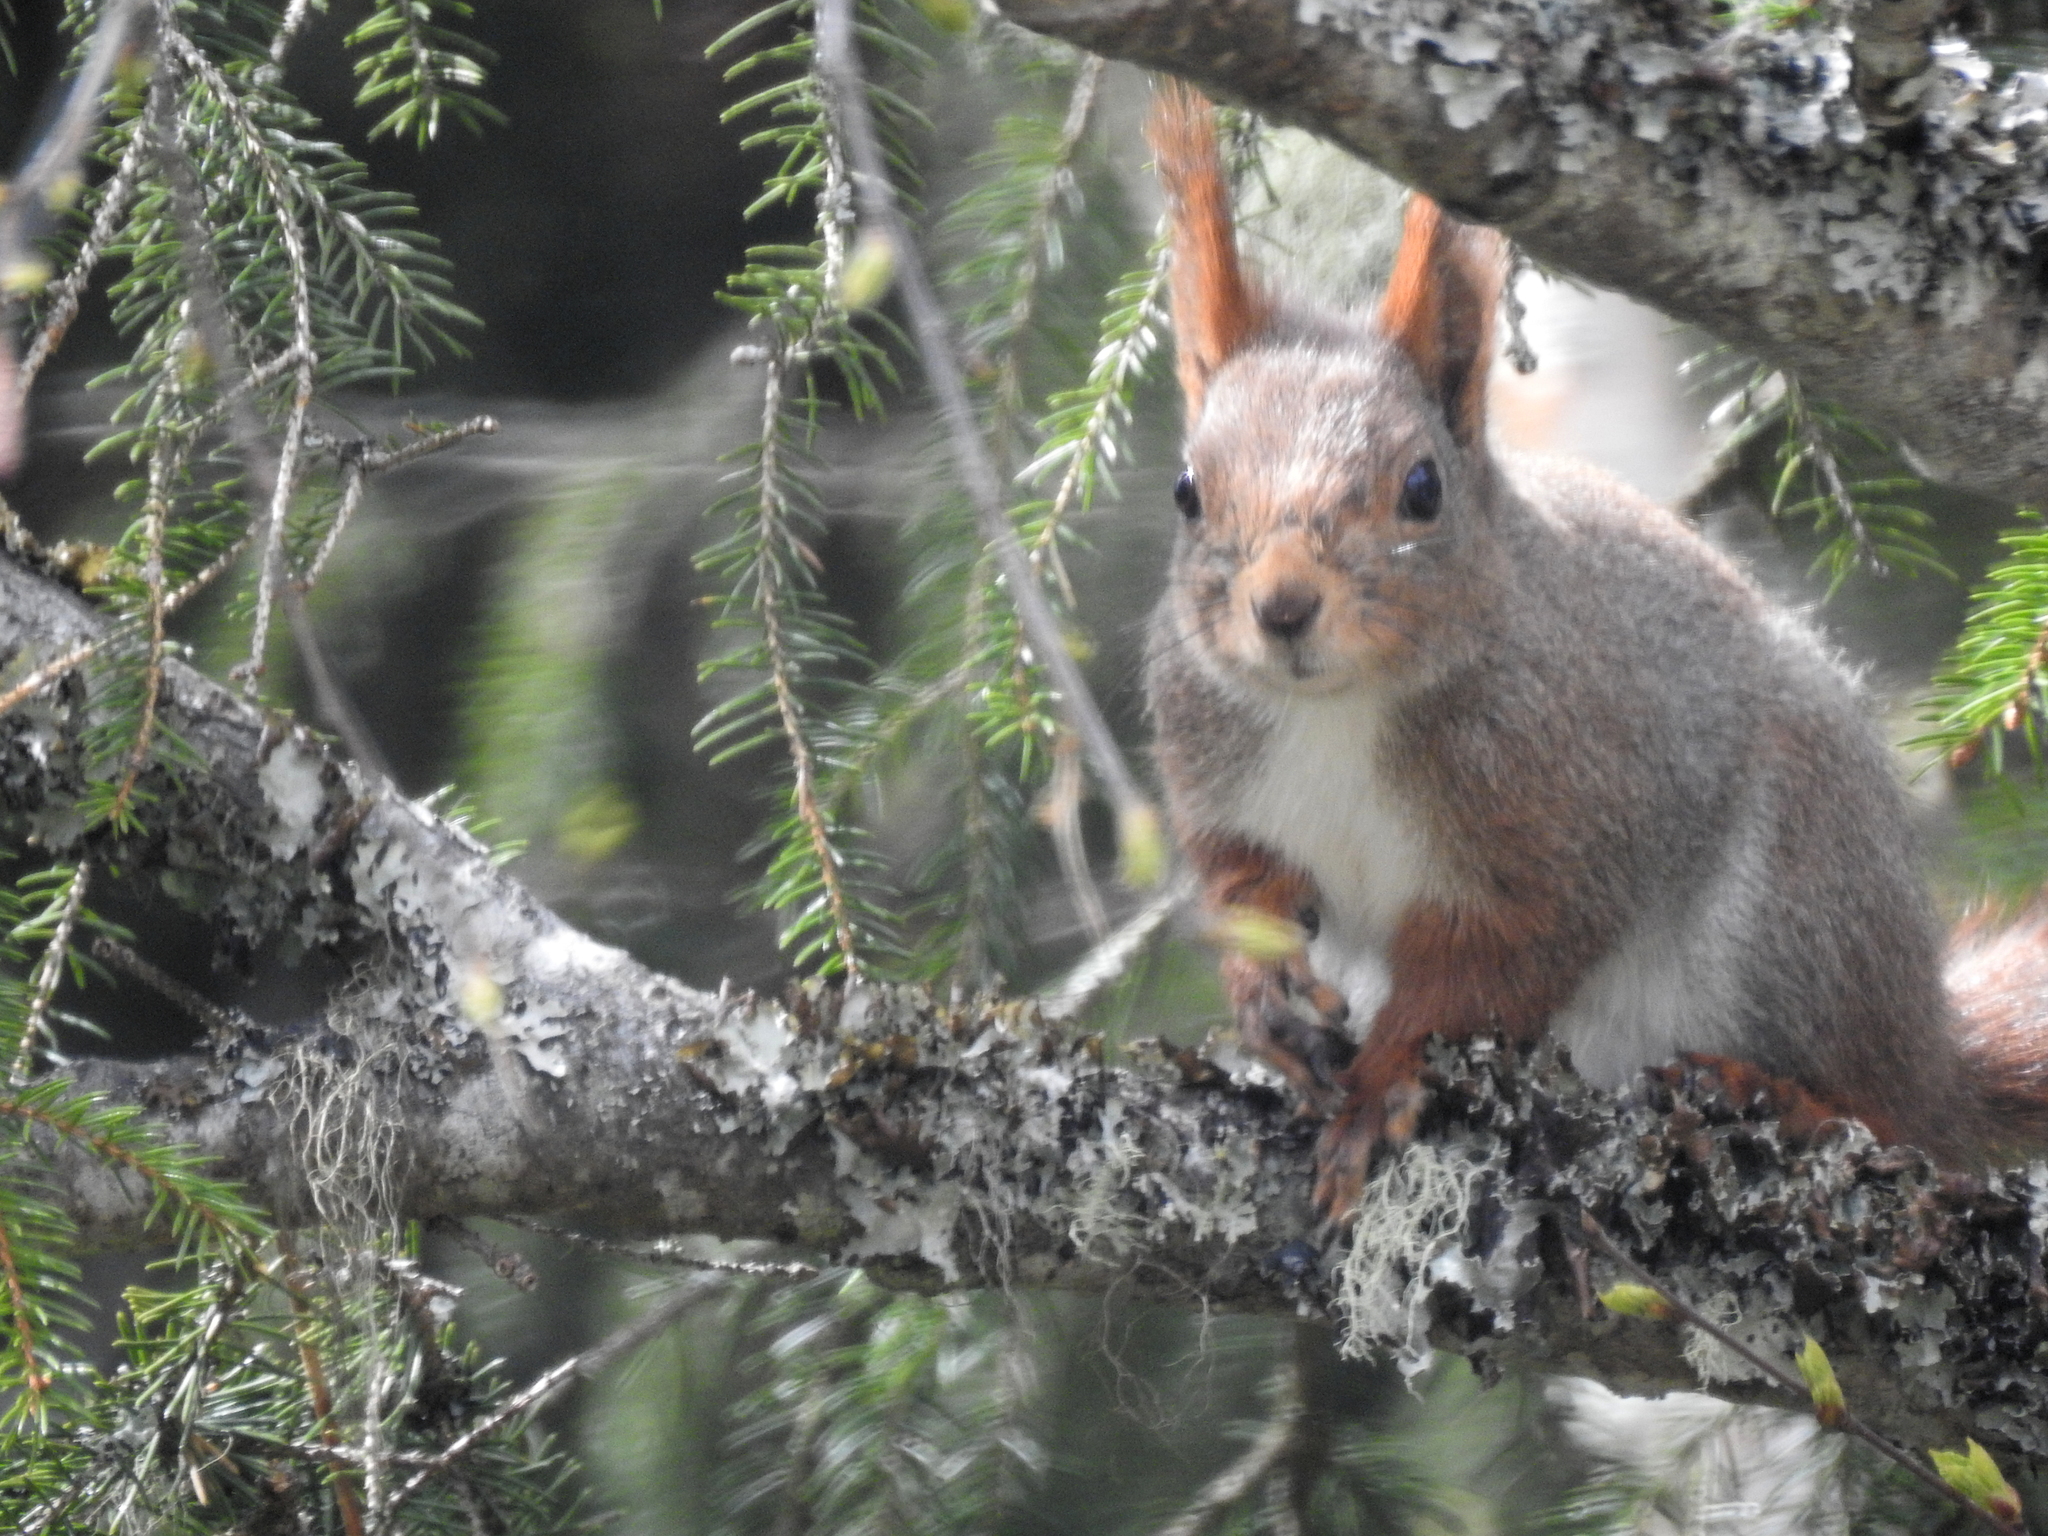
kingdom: Animalia
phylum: Chordata
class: Mammalia
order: Rodentia
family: Sciuridae
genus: Sciurus
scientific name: Sciurus vulgaris
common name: Eurasian red squirrel
